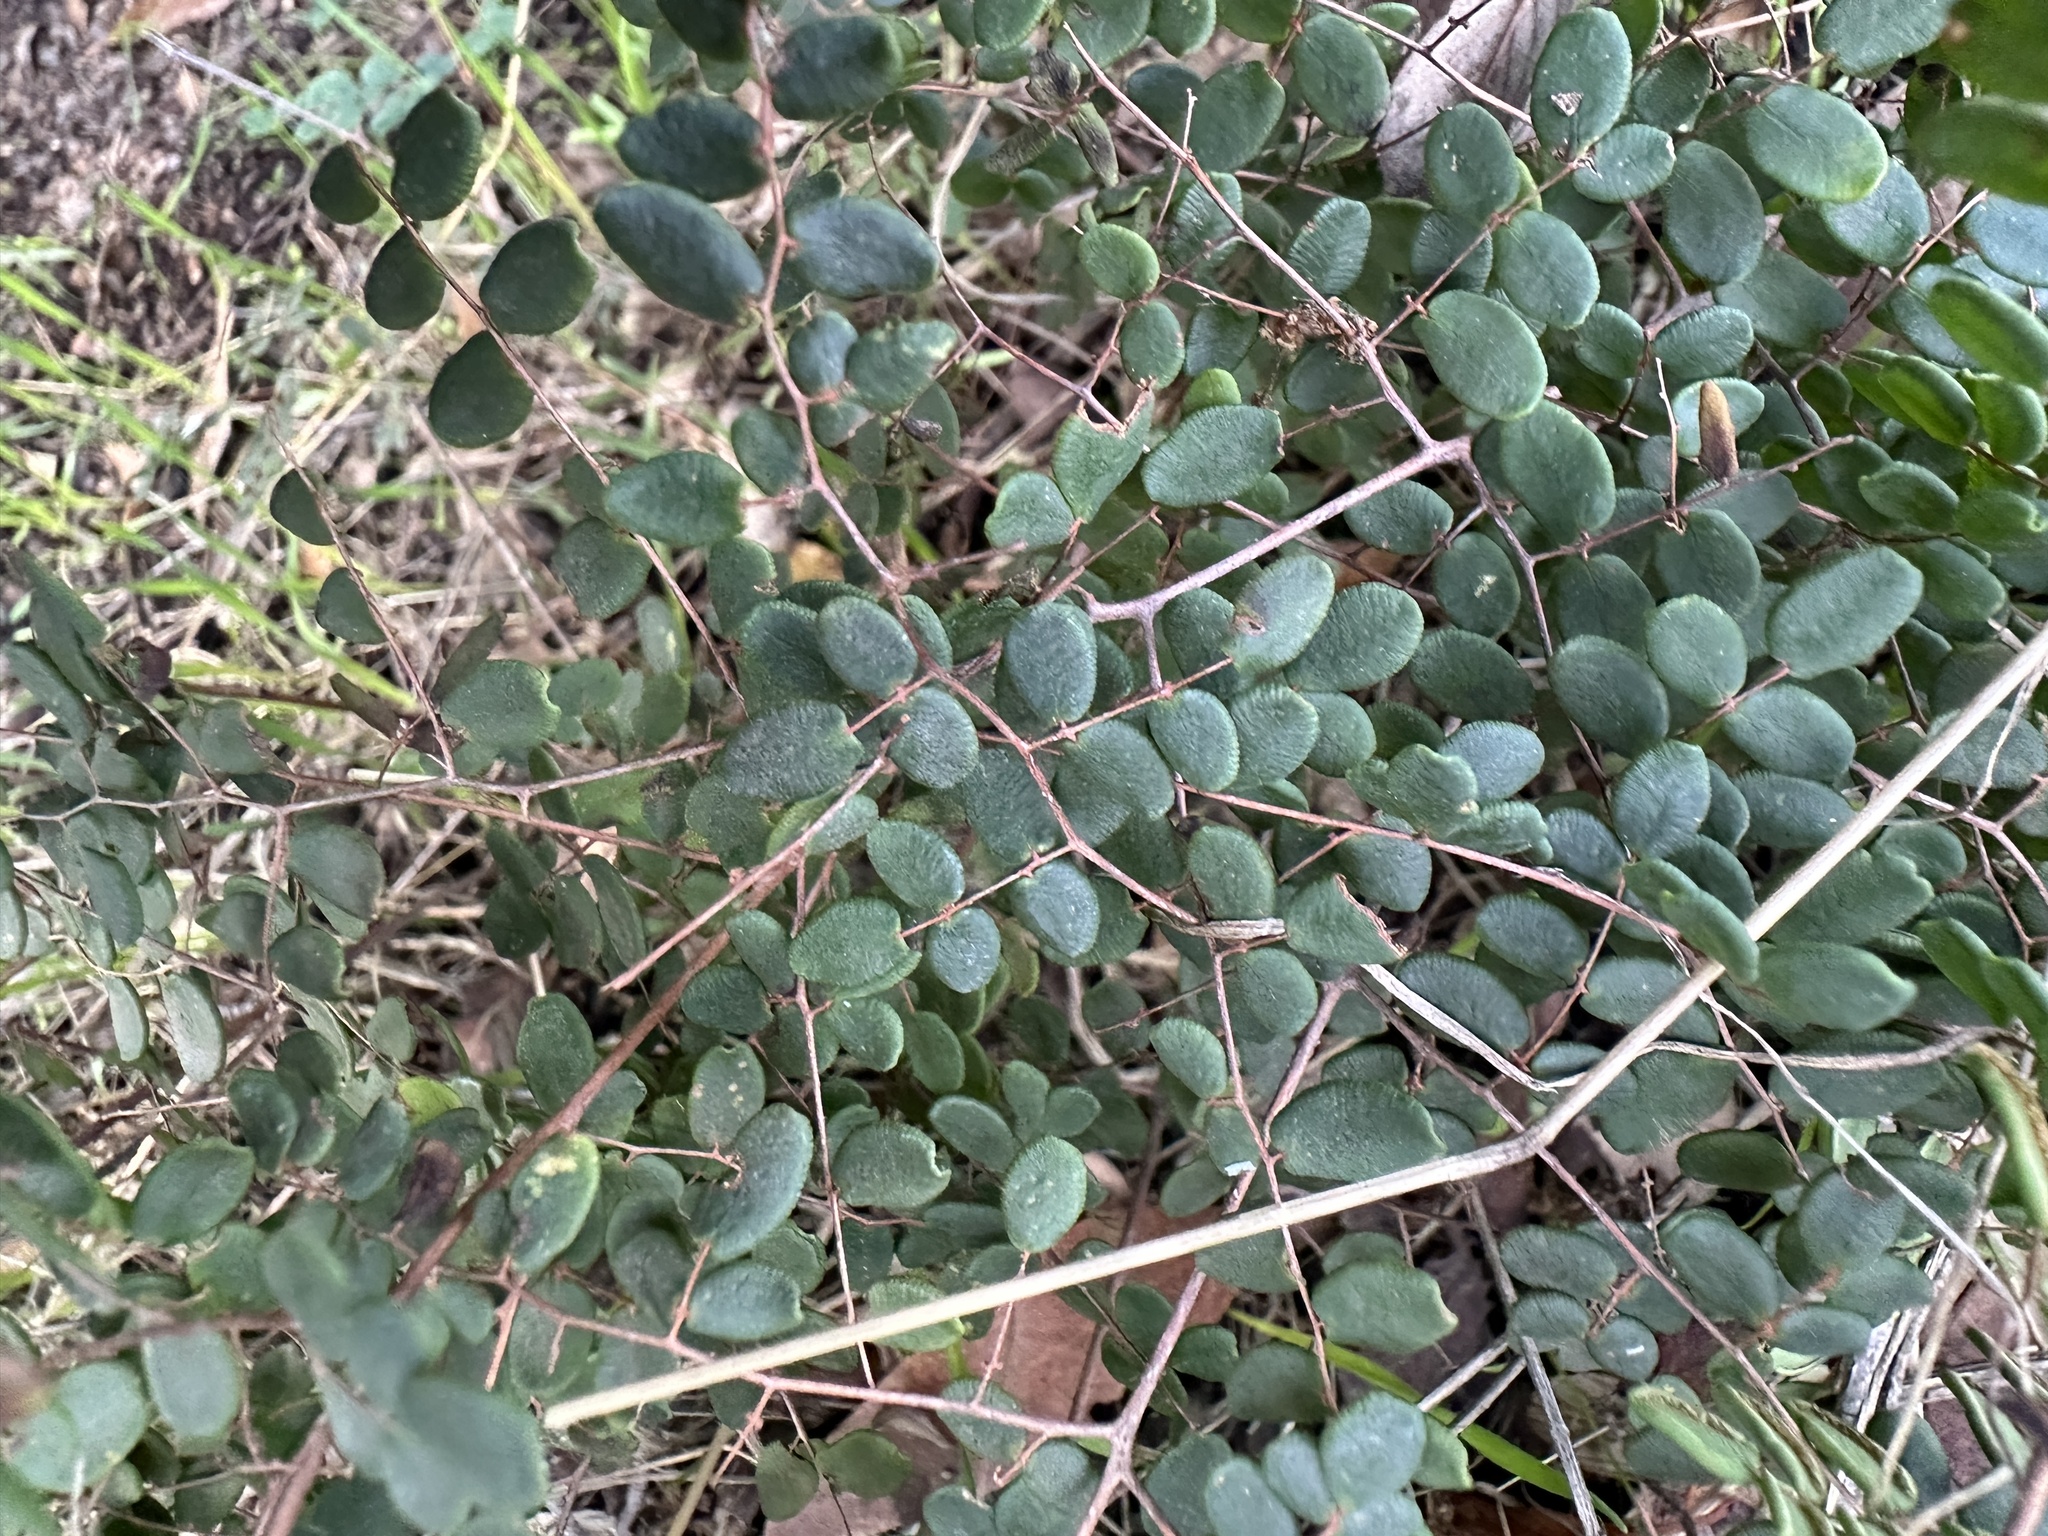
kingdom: Plantae
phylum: Tracheophyta
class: Polypodiopsida
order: Polypodiales
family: Pteridaceae
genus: Pellaea
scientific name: Pellaea andromedifolia
